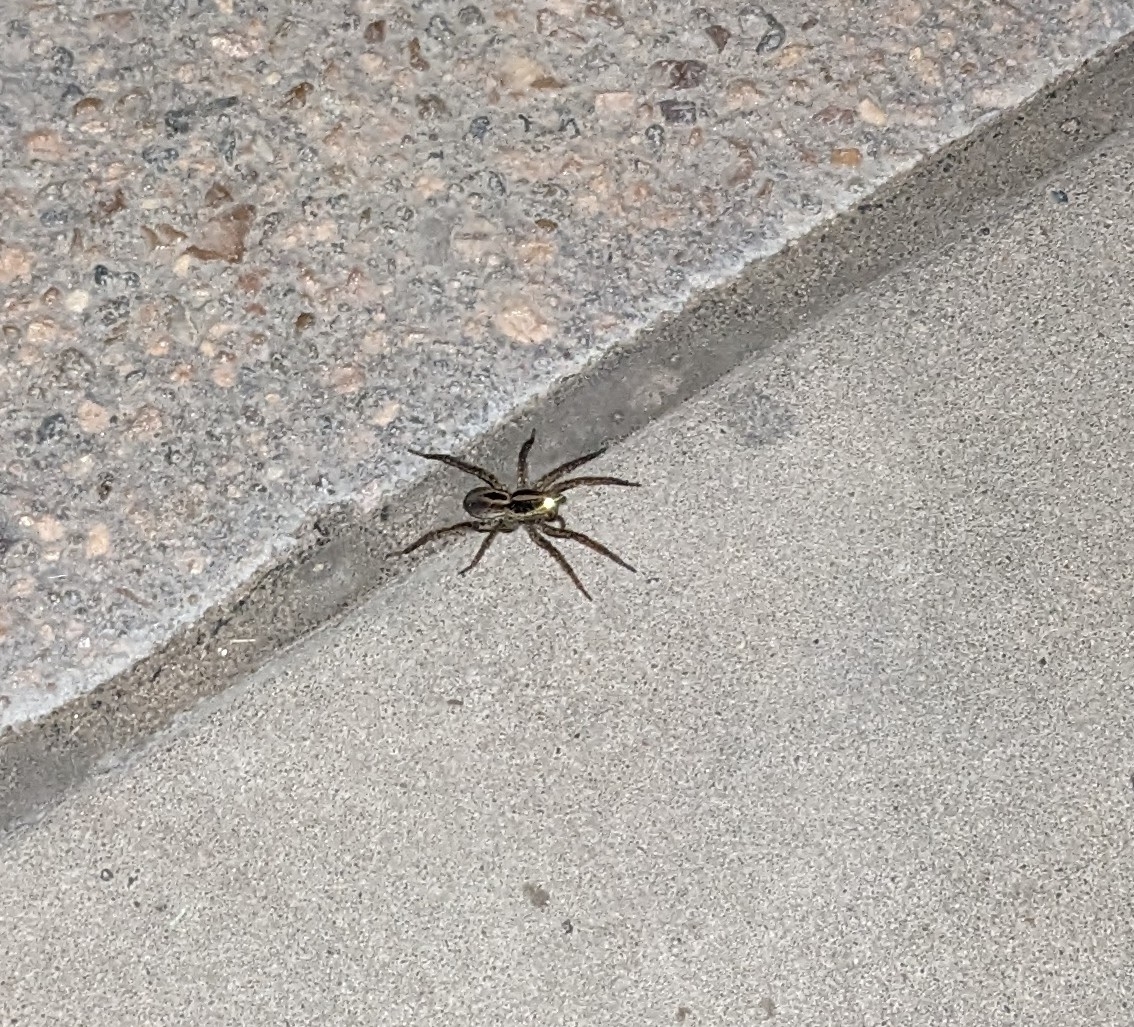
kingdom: Animalia
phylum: Arthropoda
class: Arachnida
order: Araneae
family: Lycosidae
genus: Tigrosa
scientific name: Tigrosa annexa
